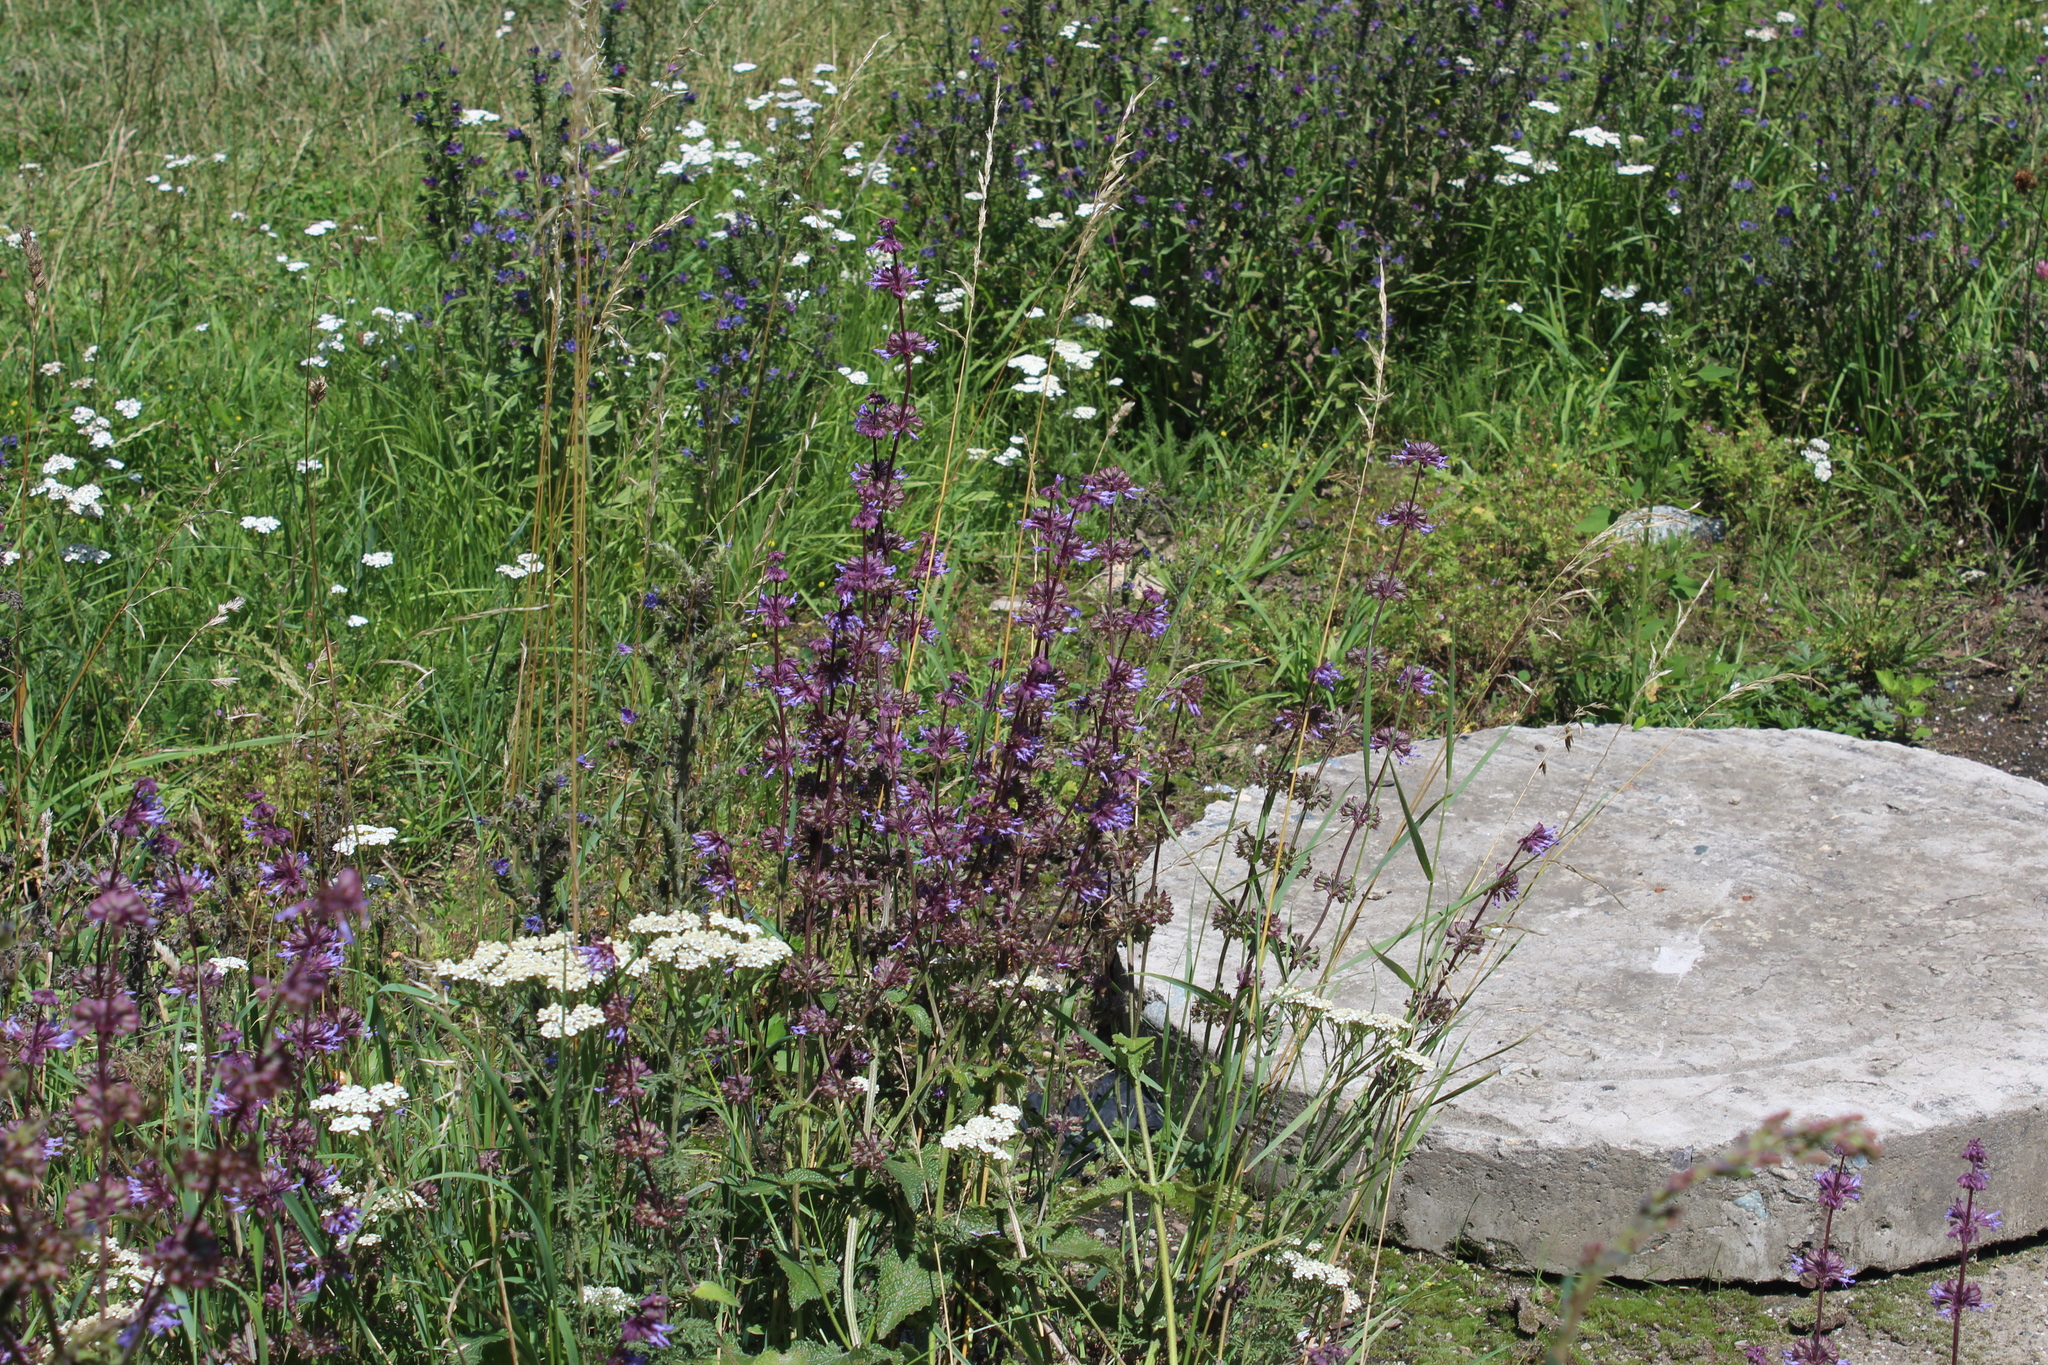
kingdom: Plantae
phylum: Tracheophyta
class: Magnoliopsida
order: Lamiales
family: Lamiaceae
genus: Salvia
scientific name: Salvia verticillata
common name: Whorled clary
